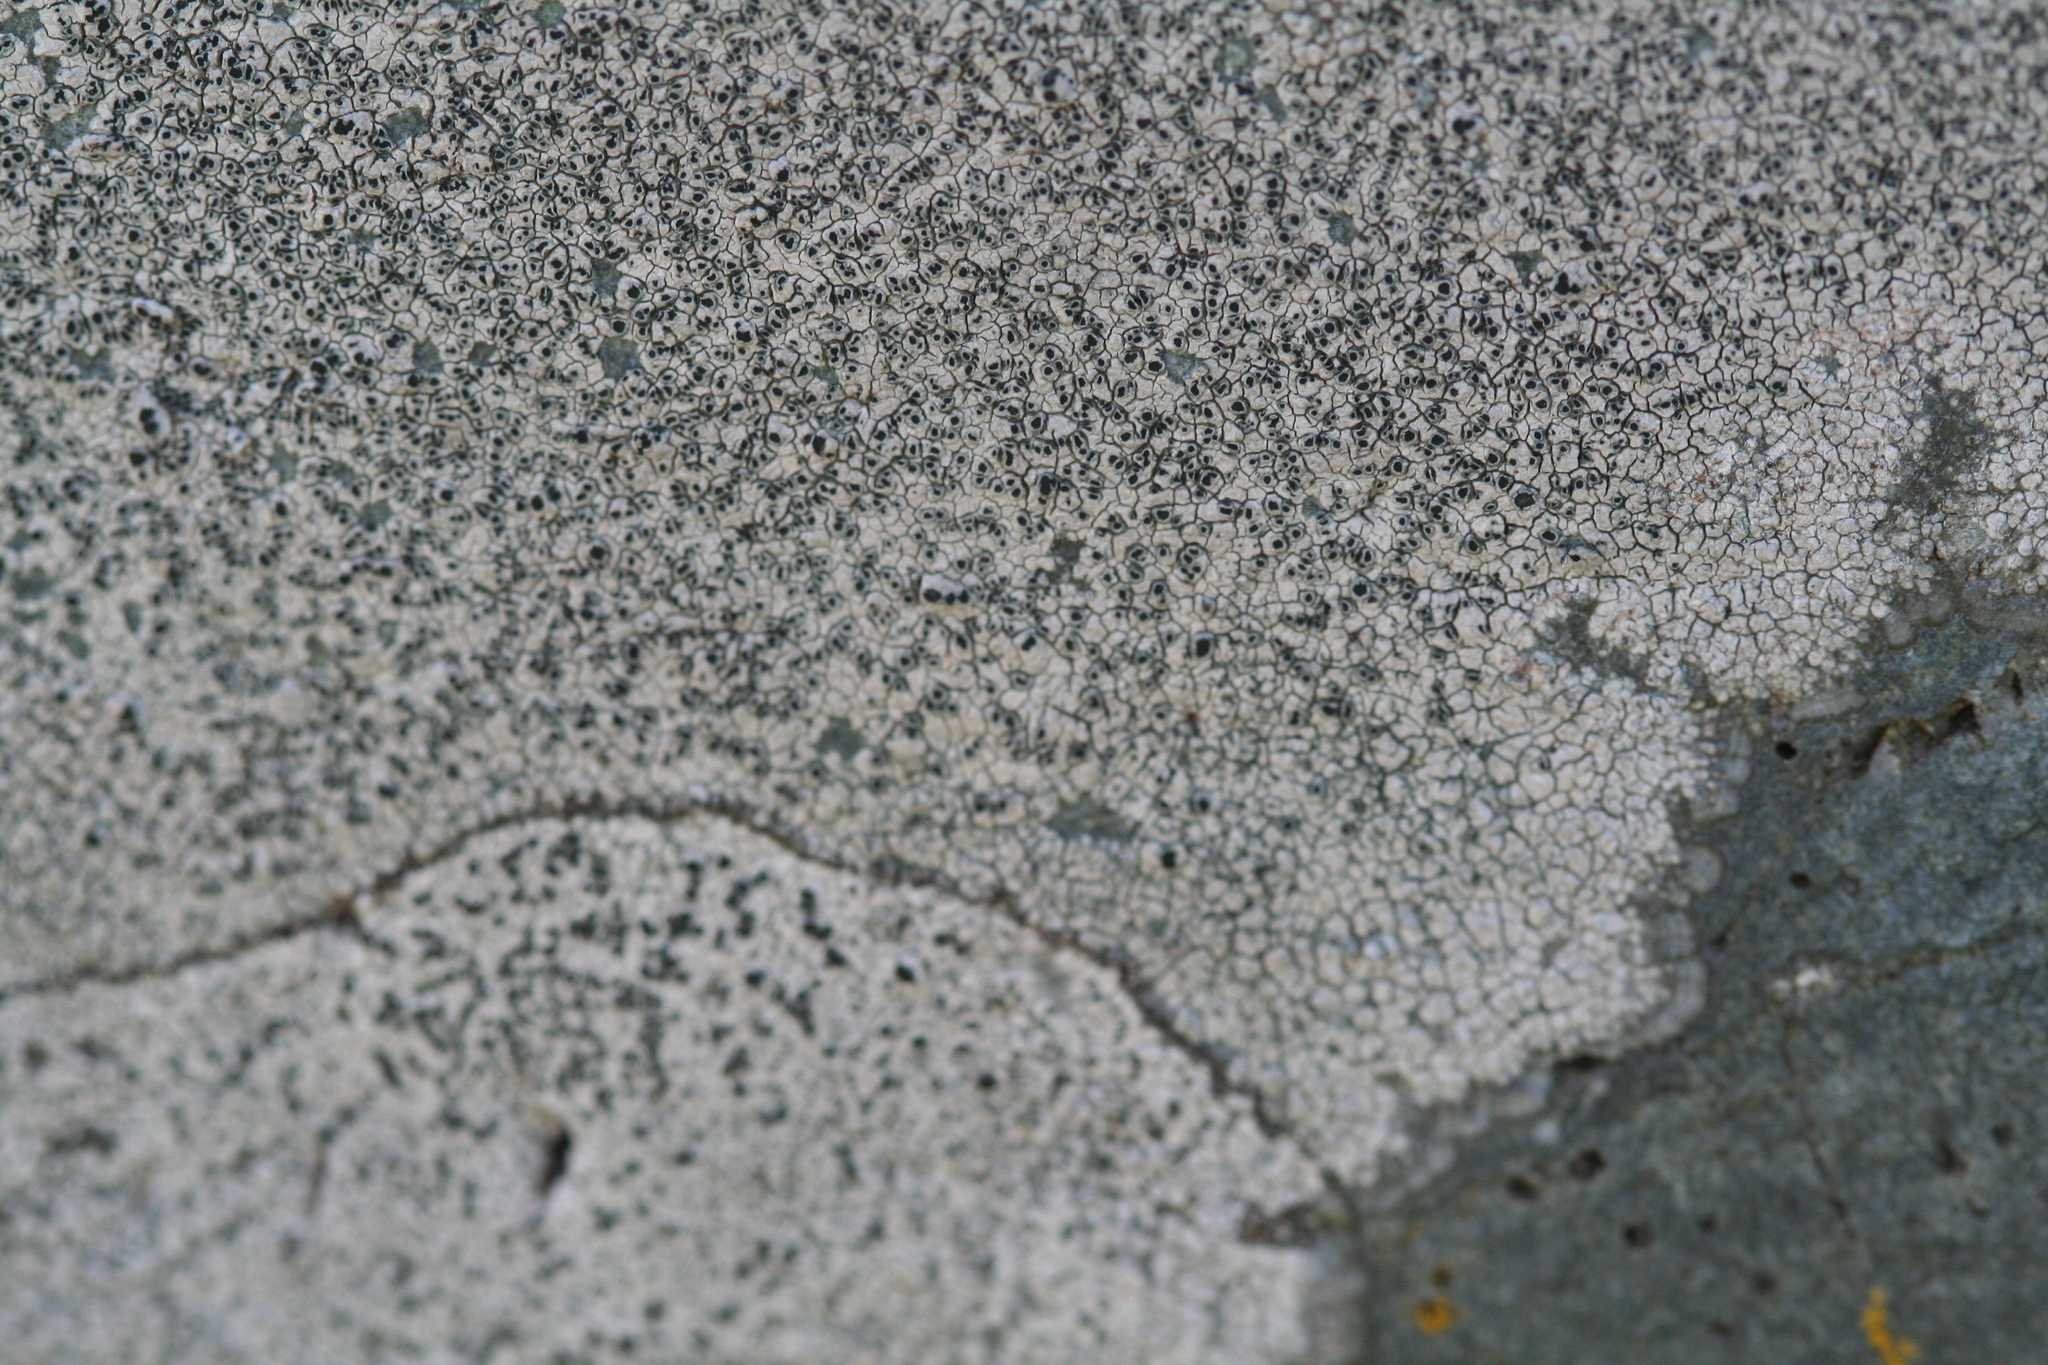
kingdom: Fungi
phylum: Ascomycota
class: Lecanoromycetes
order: Pertusariales
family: Megasporaceae
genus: Aspicilia
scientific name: Aspicilia cinerea
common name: Cinder lichen
